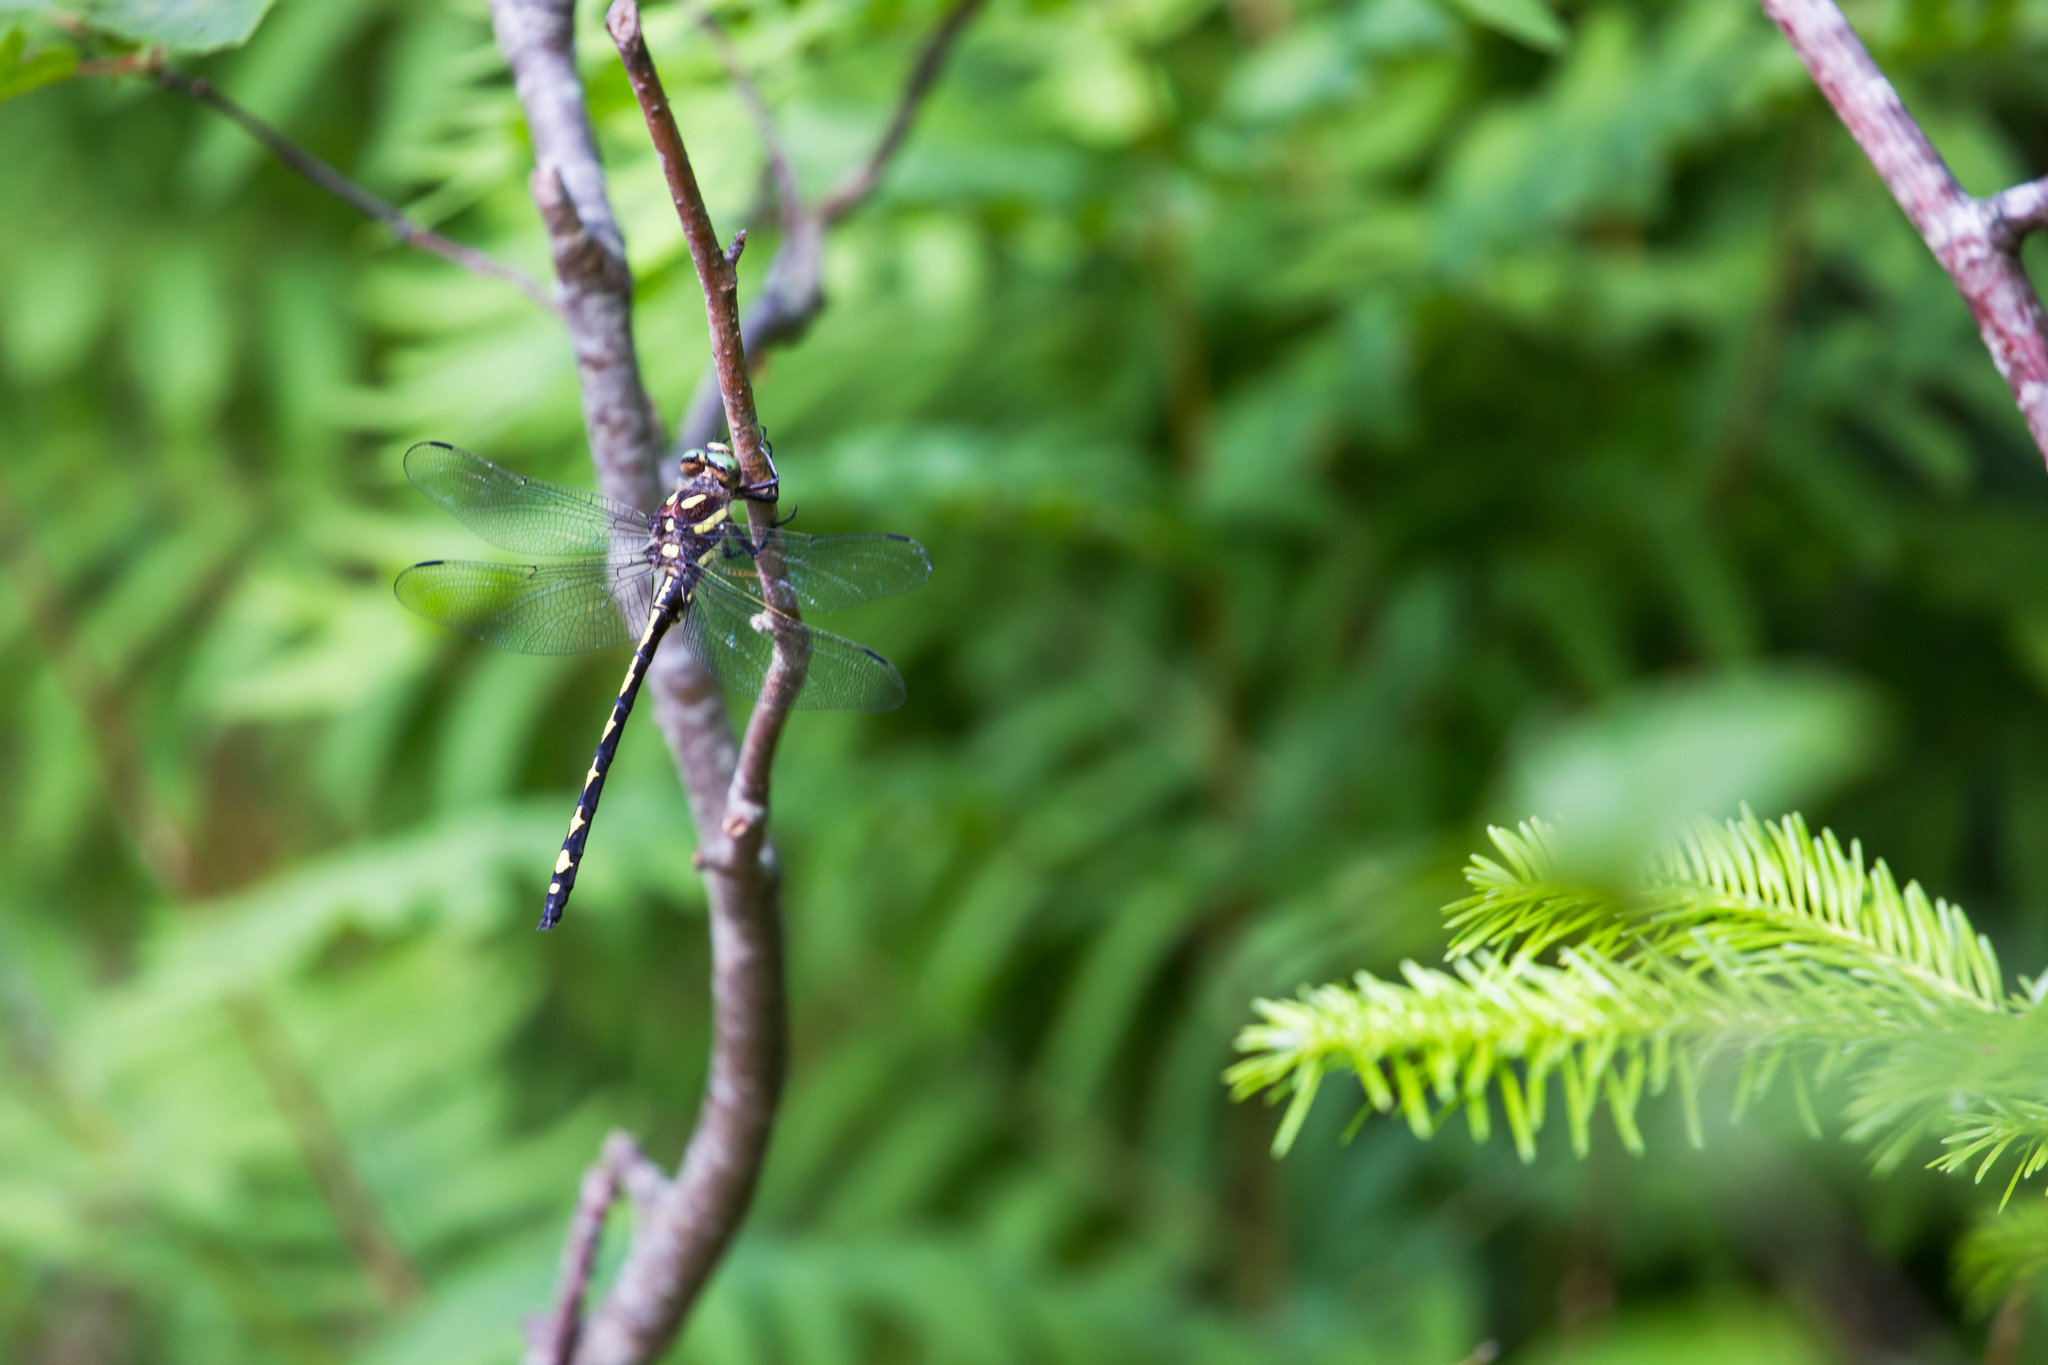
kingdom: Animalia
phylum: Arthropoda
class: Insecta
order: Odonata
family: Cordulegastridae
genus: Cordulegaster
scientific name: Cordulegaster obliqua
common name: Arrowhead spiketail
